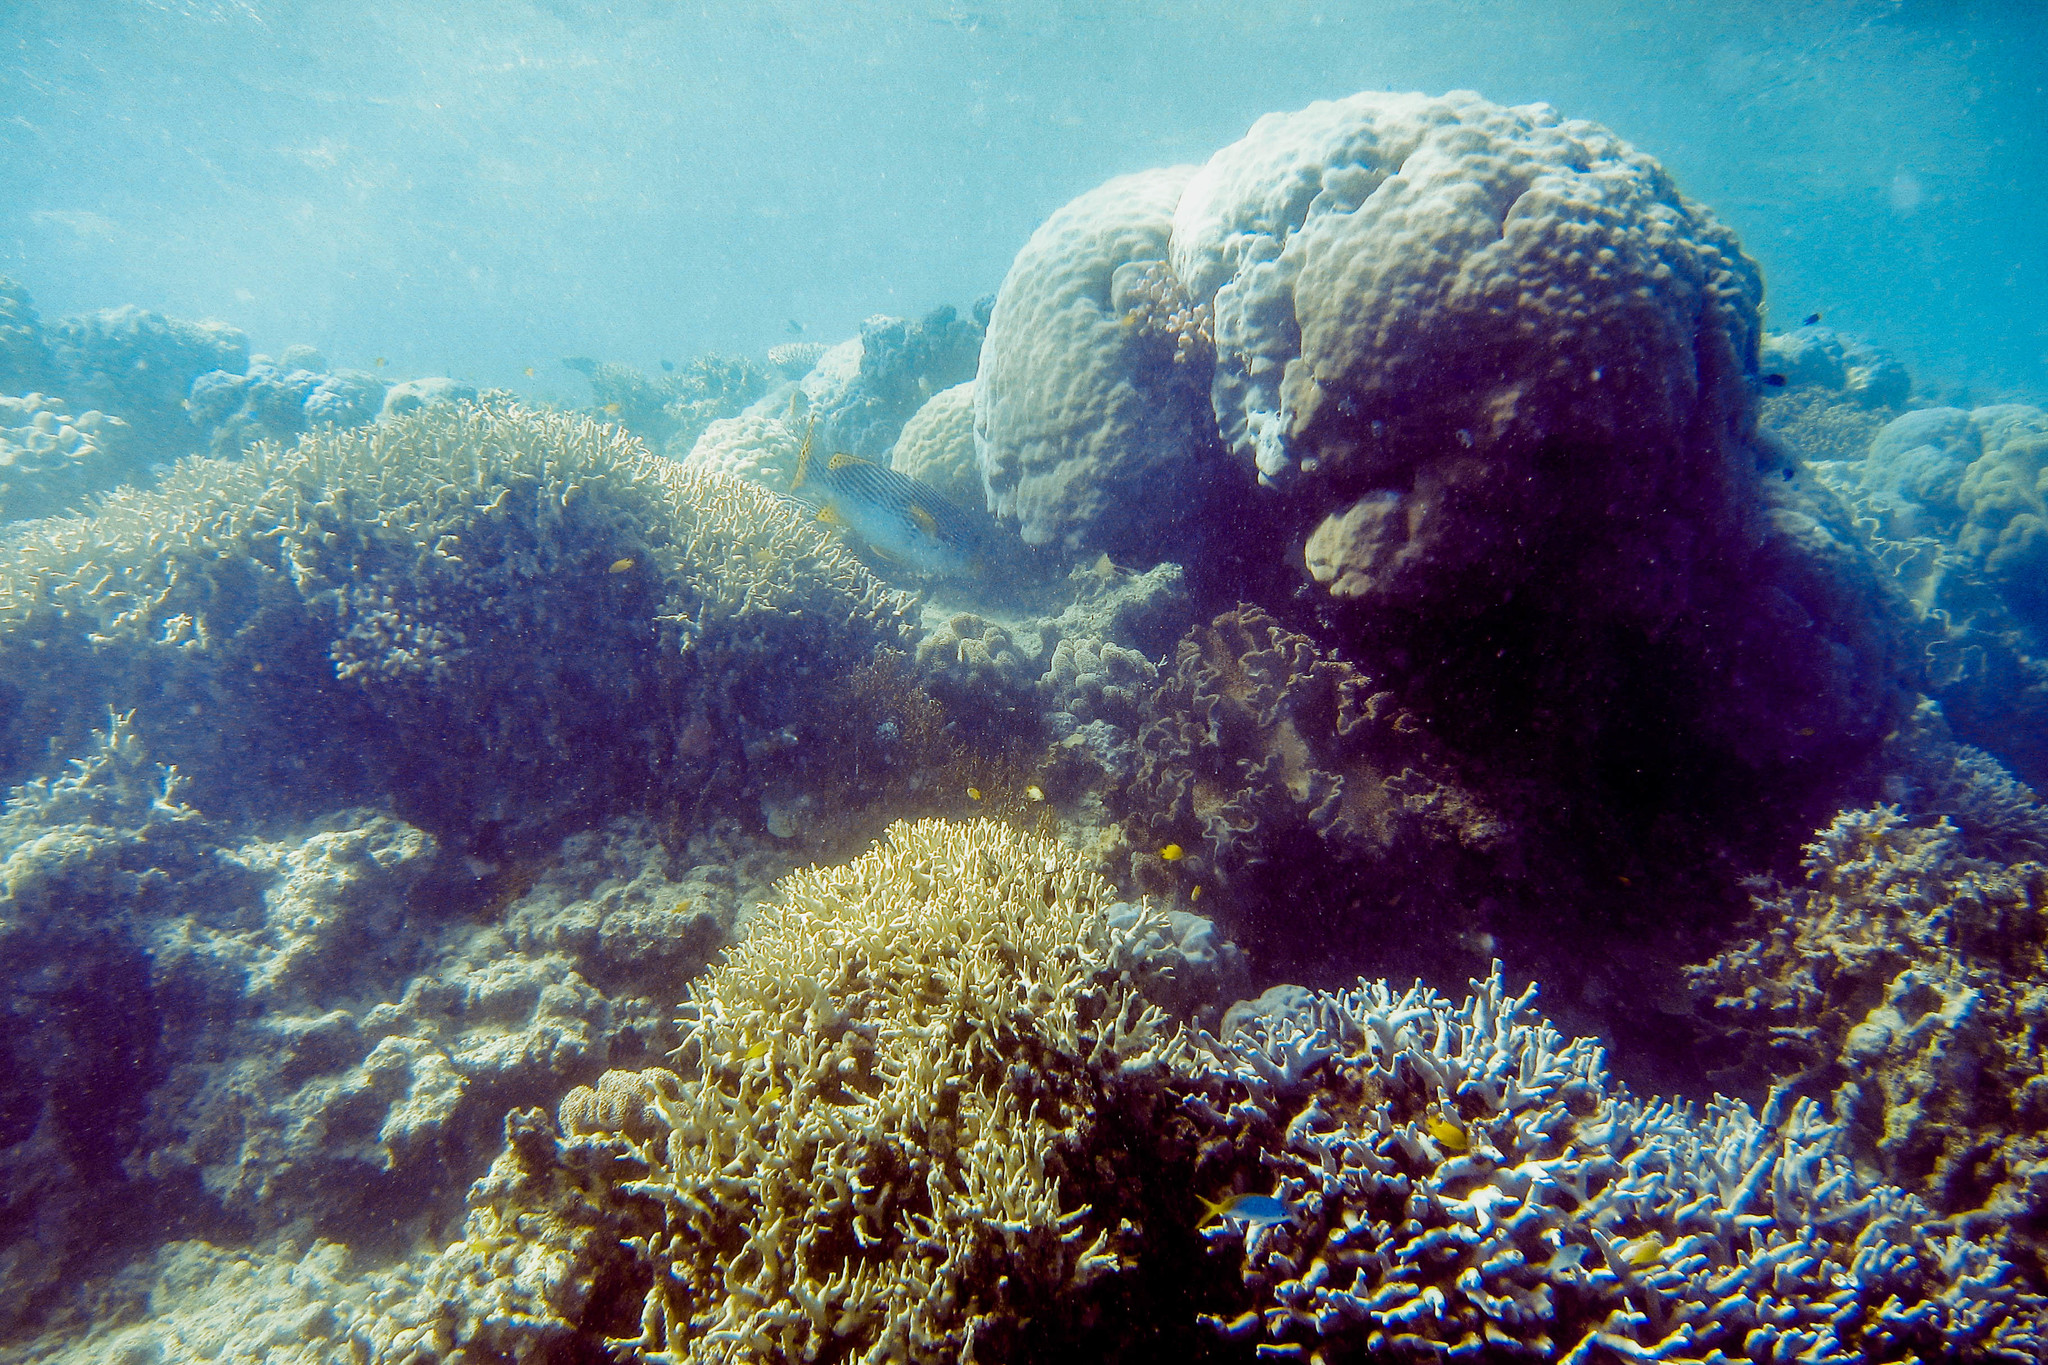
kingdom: Animalia
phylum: Chordata
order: Perciformes
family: Haemulidae
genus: Plectorhinchus
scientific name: Plectorhinchus lineatus
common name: Goldman's sweetlips
